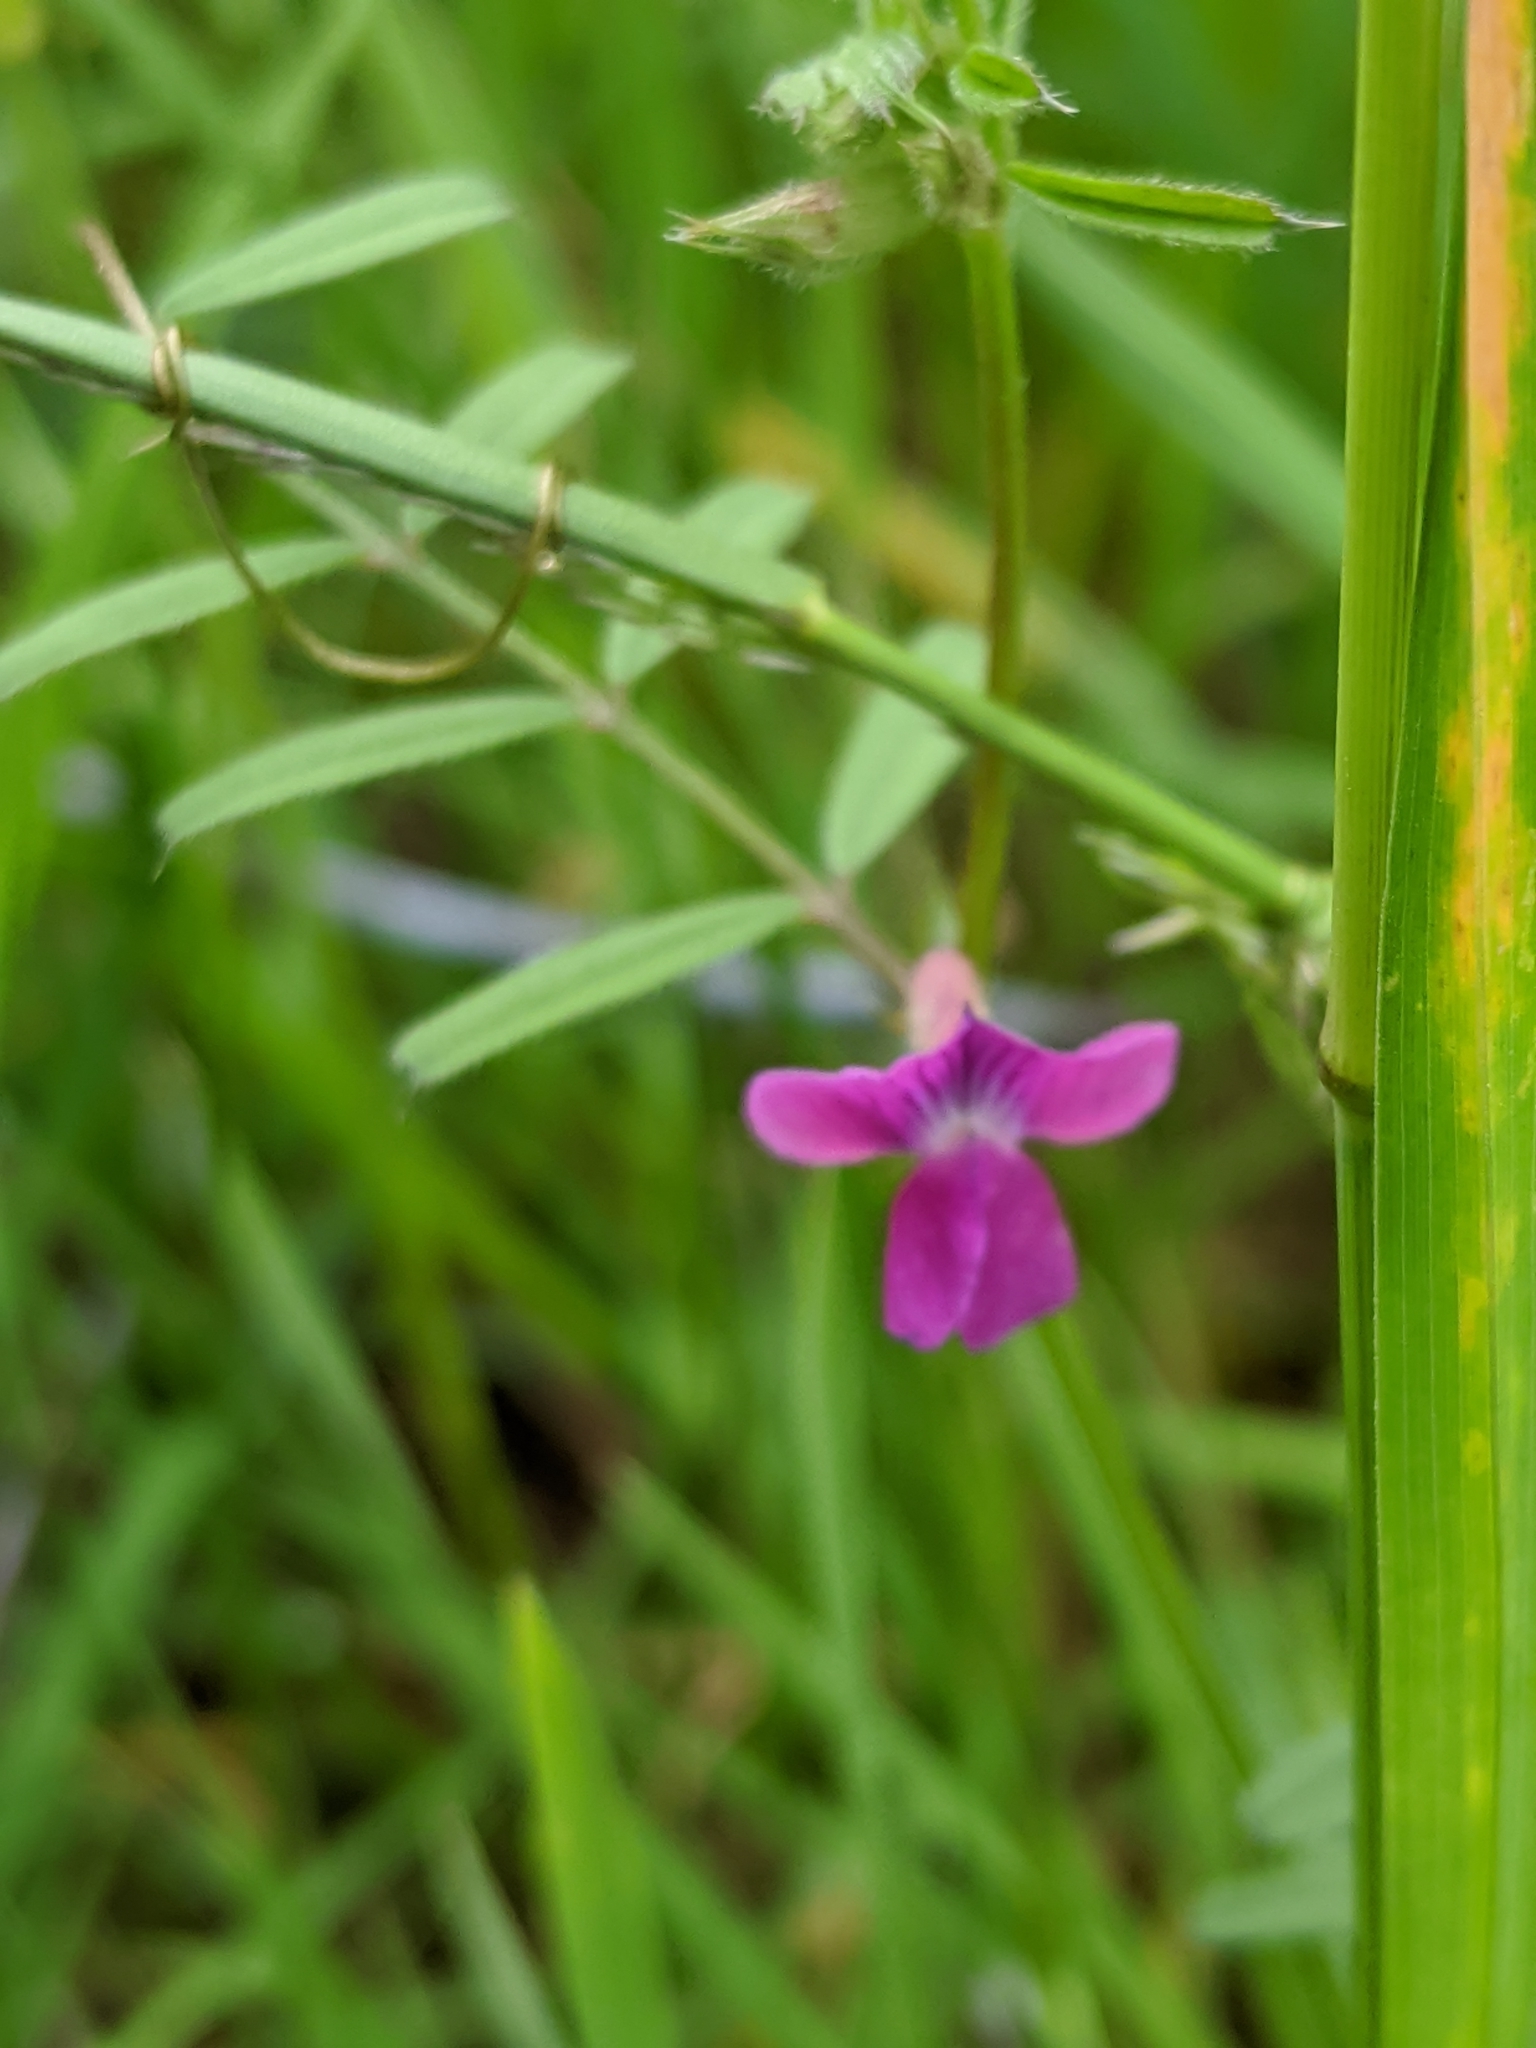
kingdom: Plantae
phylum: Tracheophyta
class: Magnoliopsida
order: Fabales
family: Fabaceae
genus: Vicia
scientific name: Vicia sativa
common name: Garden vetch
